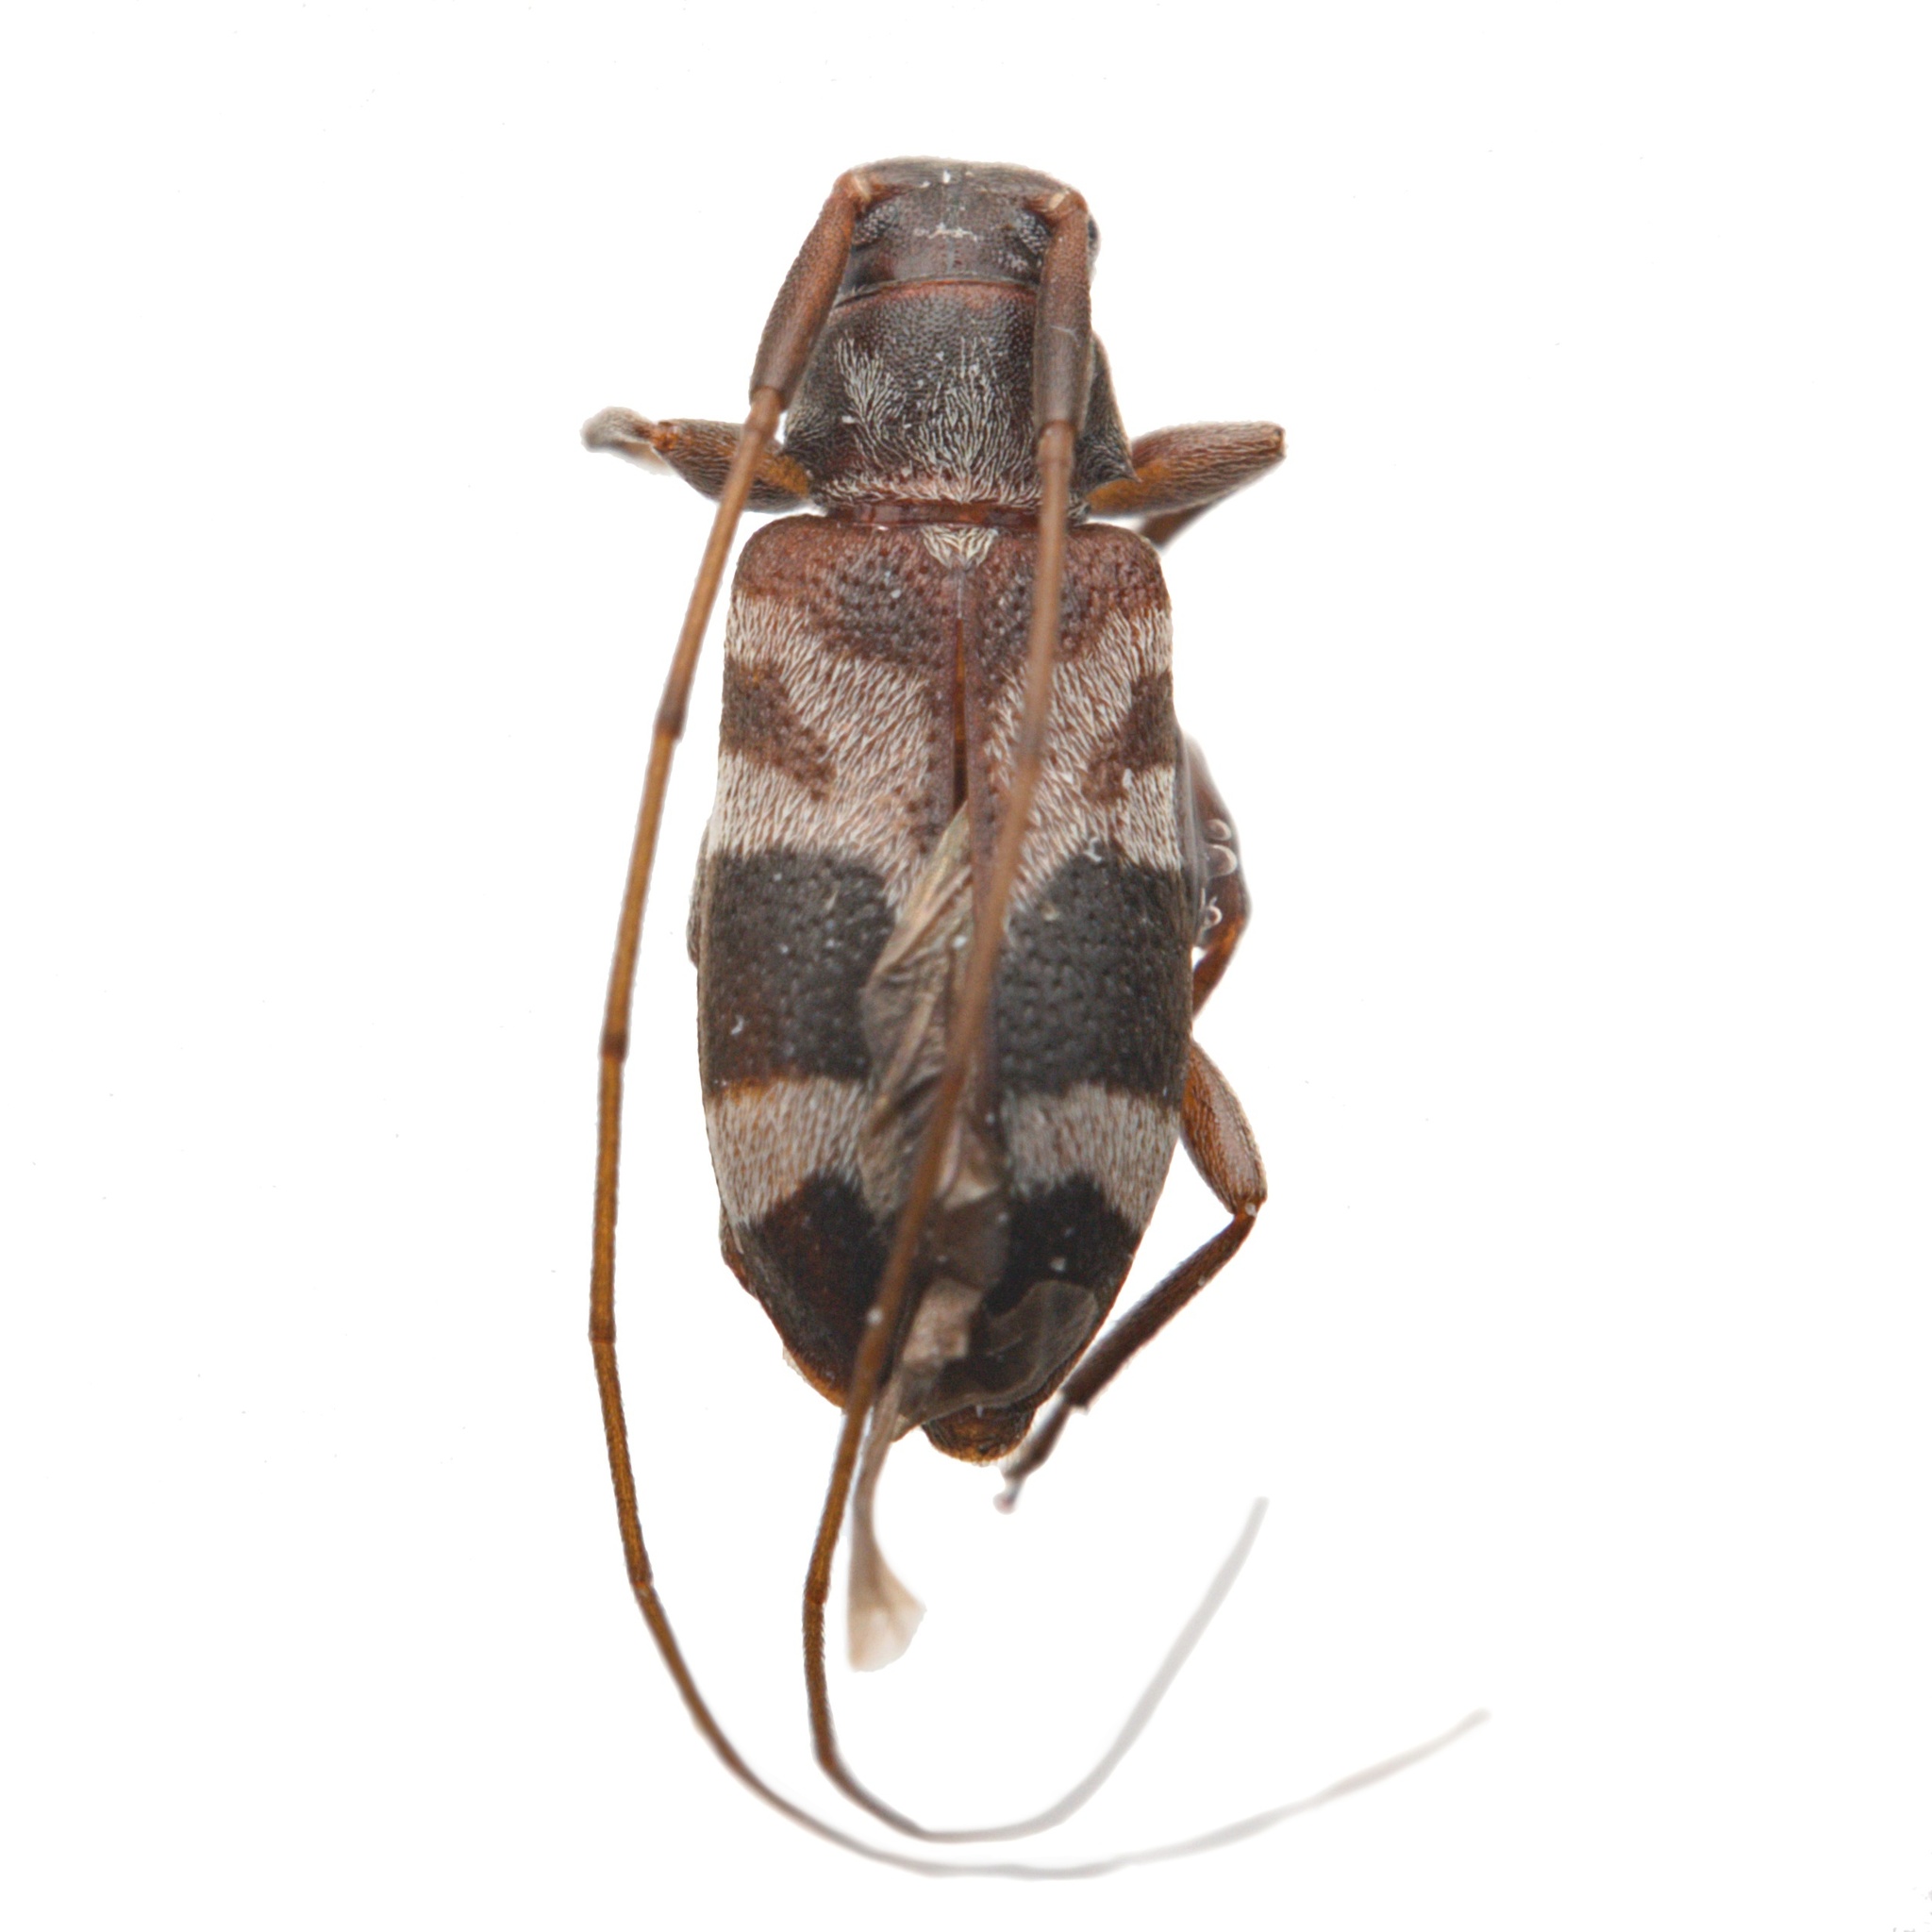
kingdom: Animalia
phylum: Arthropoda
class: Insecta
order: Coleoptera
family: Cerambycidae
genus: Urgleptes
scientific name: Urgleptes facetus
